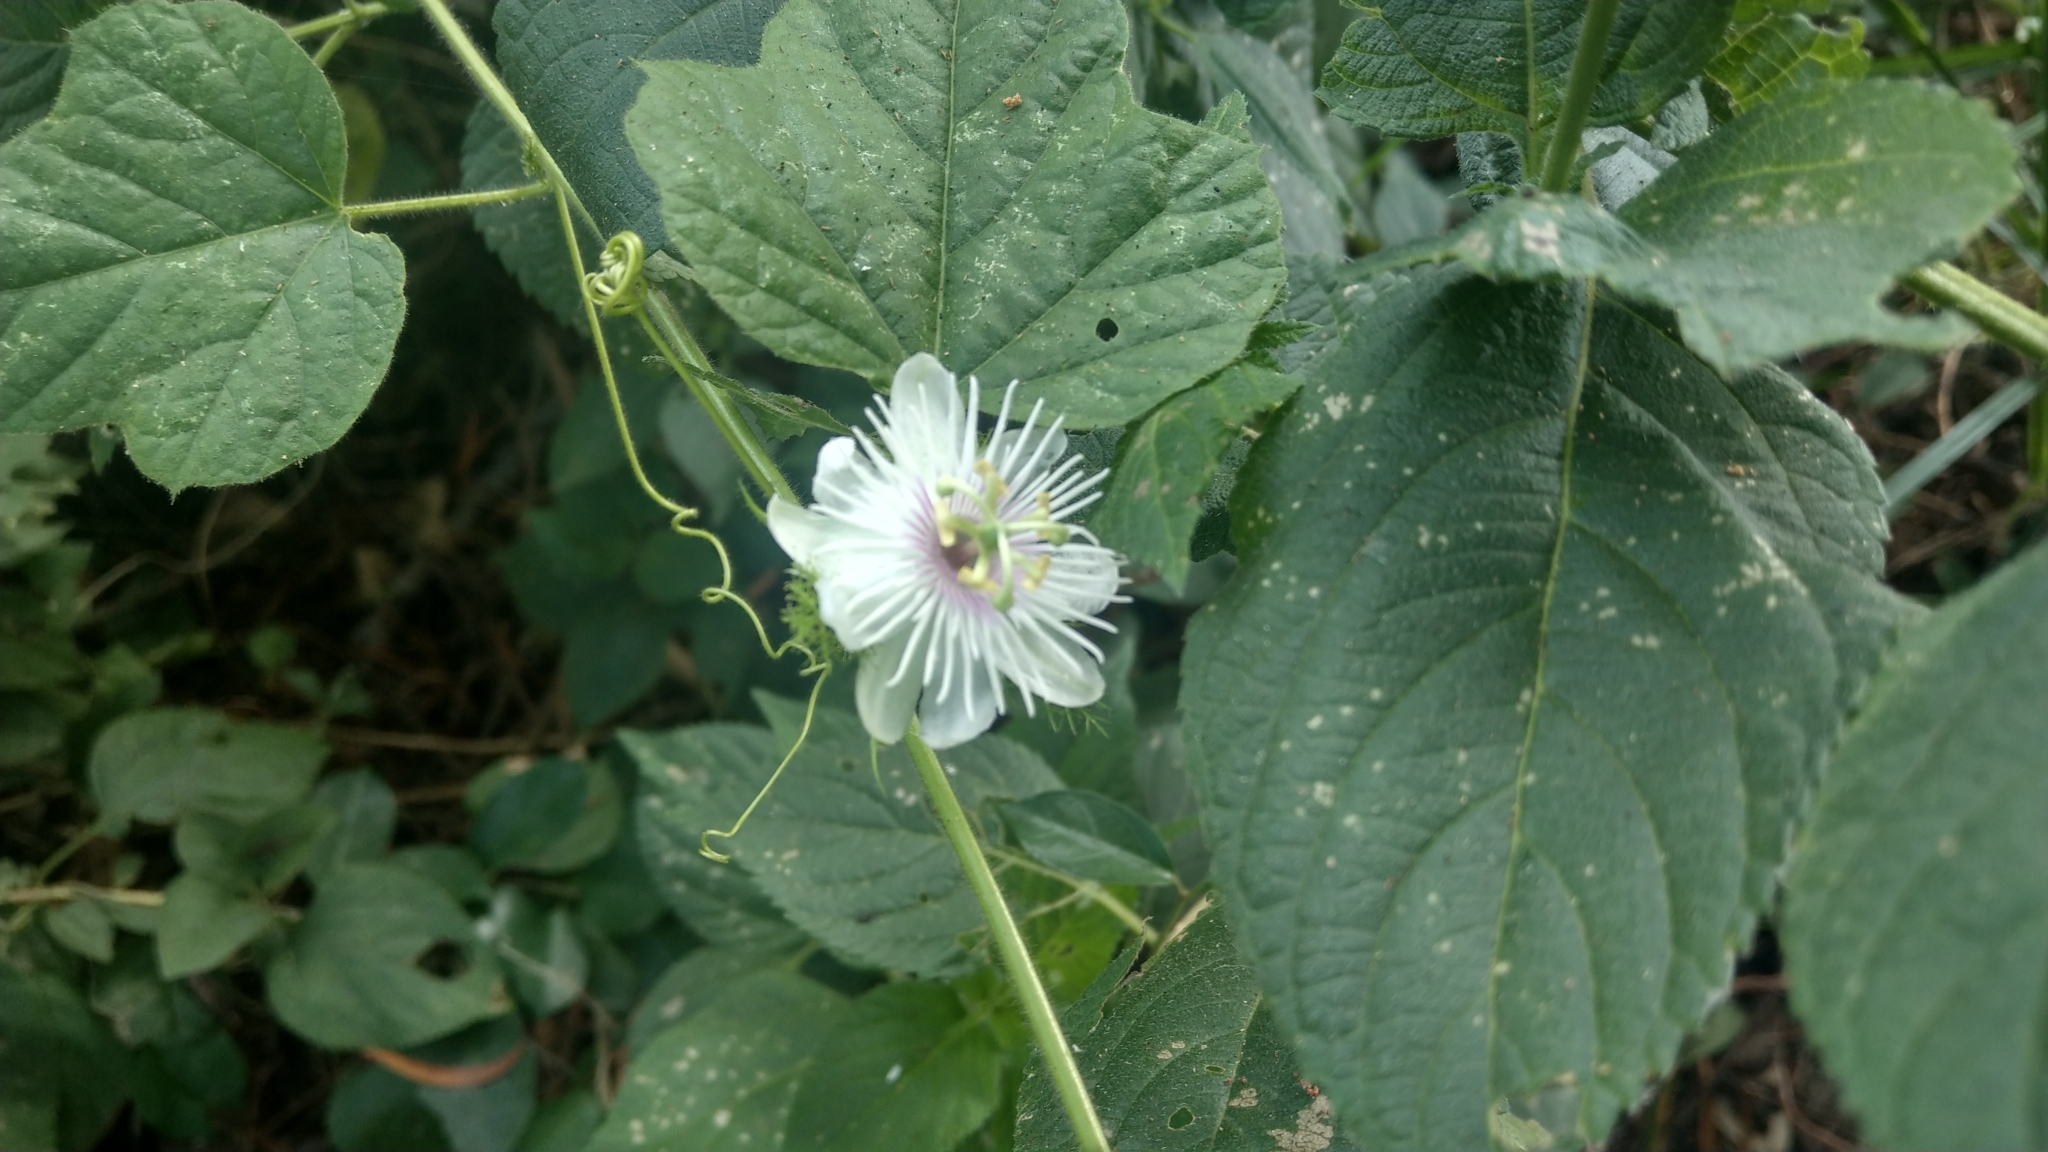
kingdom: Plantae
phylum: Tracheophyta
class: Magnoliopsida
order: Malpighiales
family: Passifloraceae
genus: Passiflora
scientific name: Passiflora vesicaria
